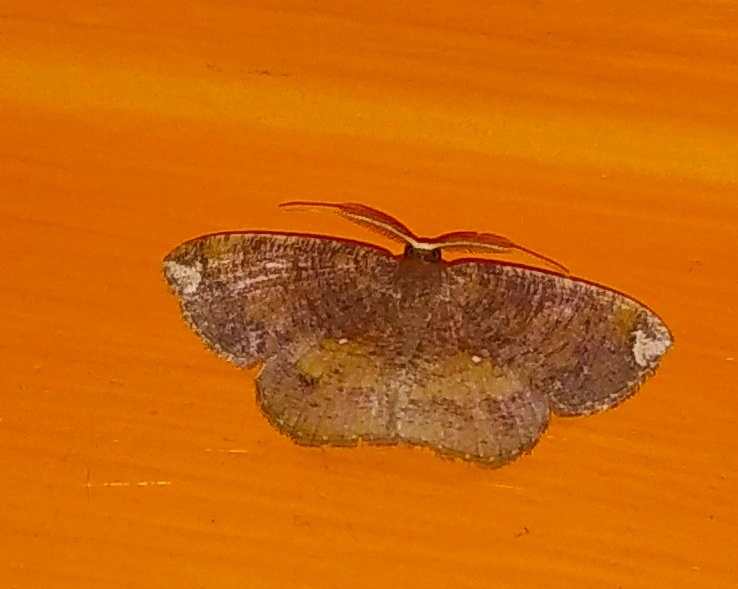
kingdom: Animalia
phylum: Arthropoda
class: Insecta
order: Lepidoptera
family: Geometridae
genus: Astygisa
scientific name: Astygisa albopunctata
